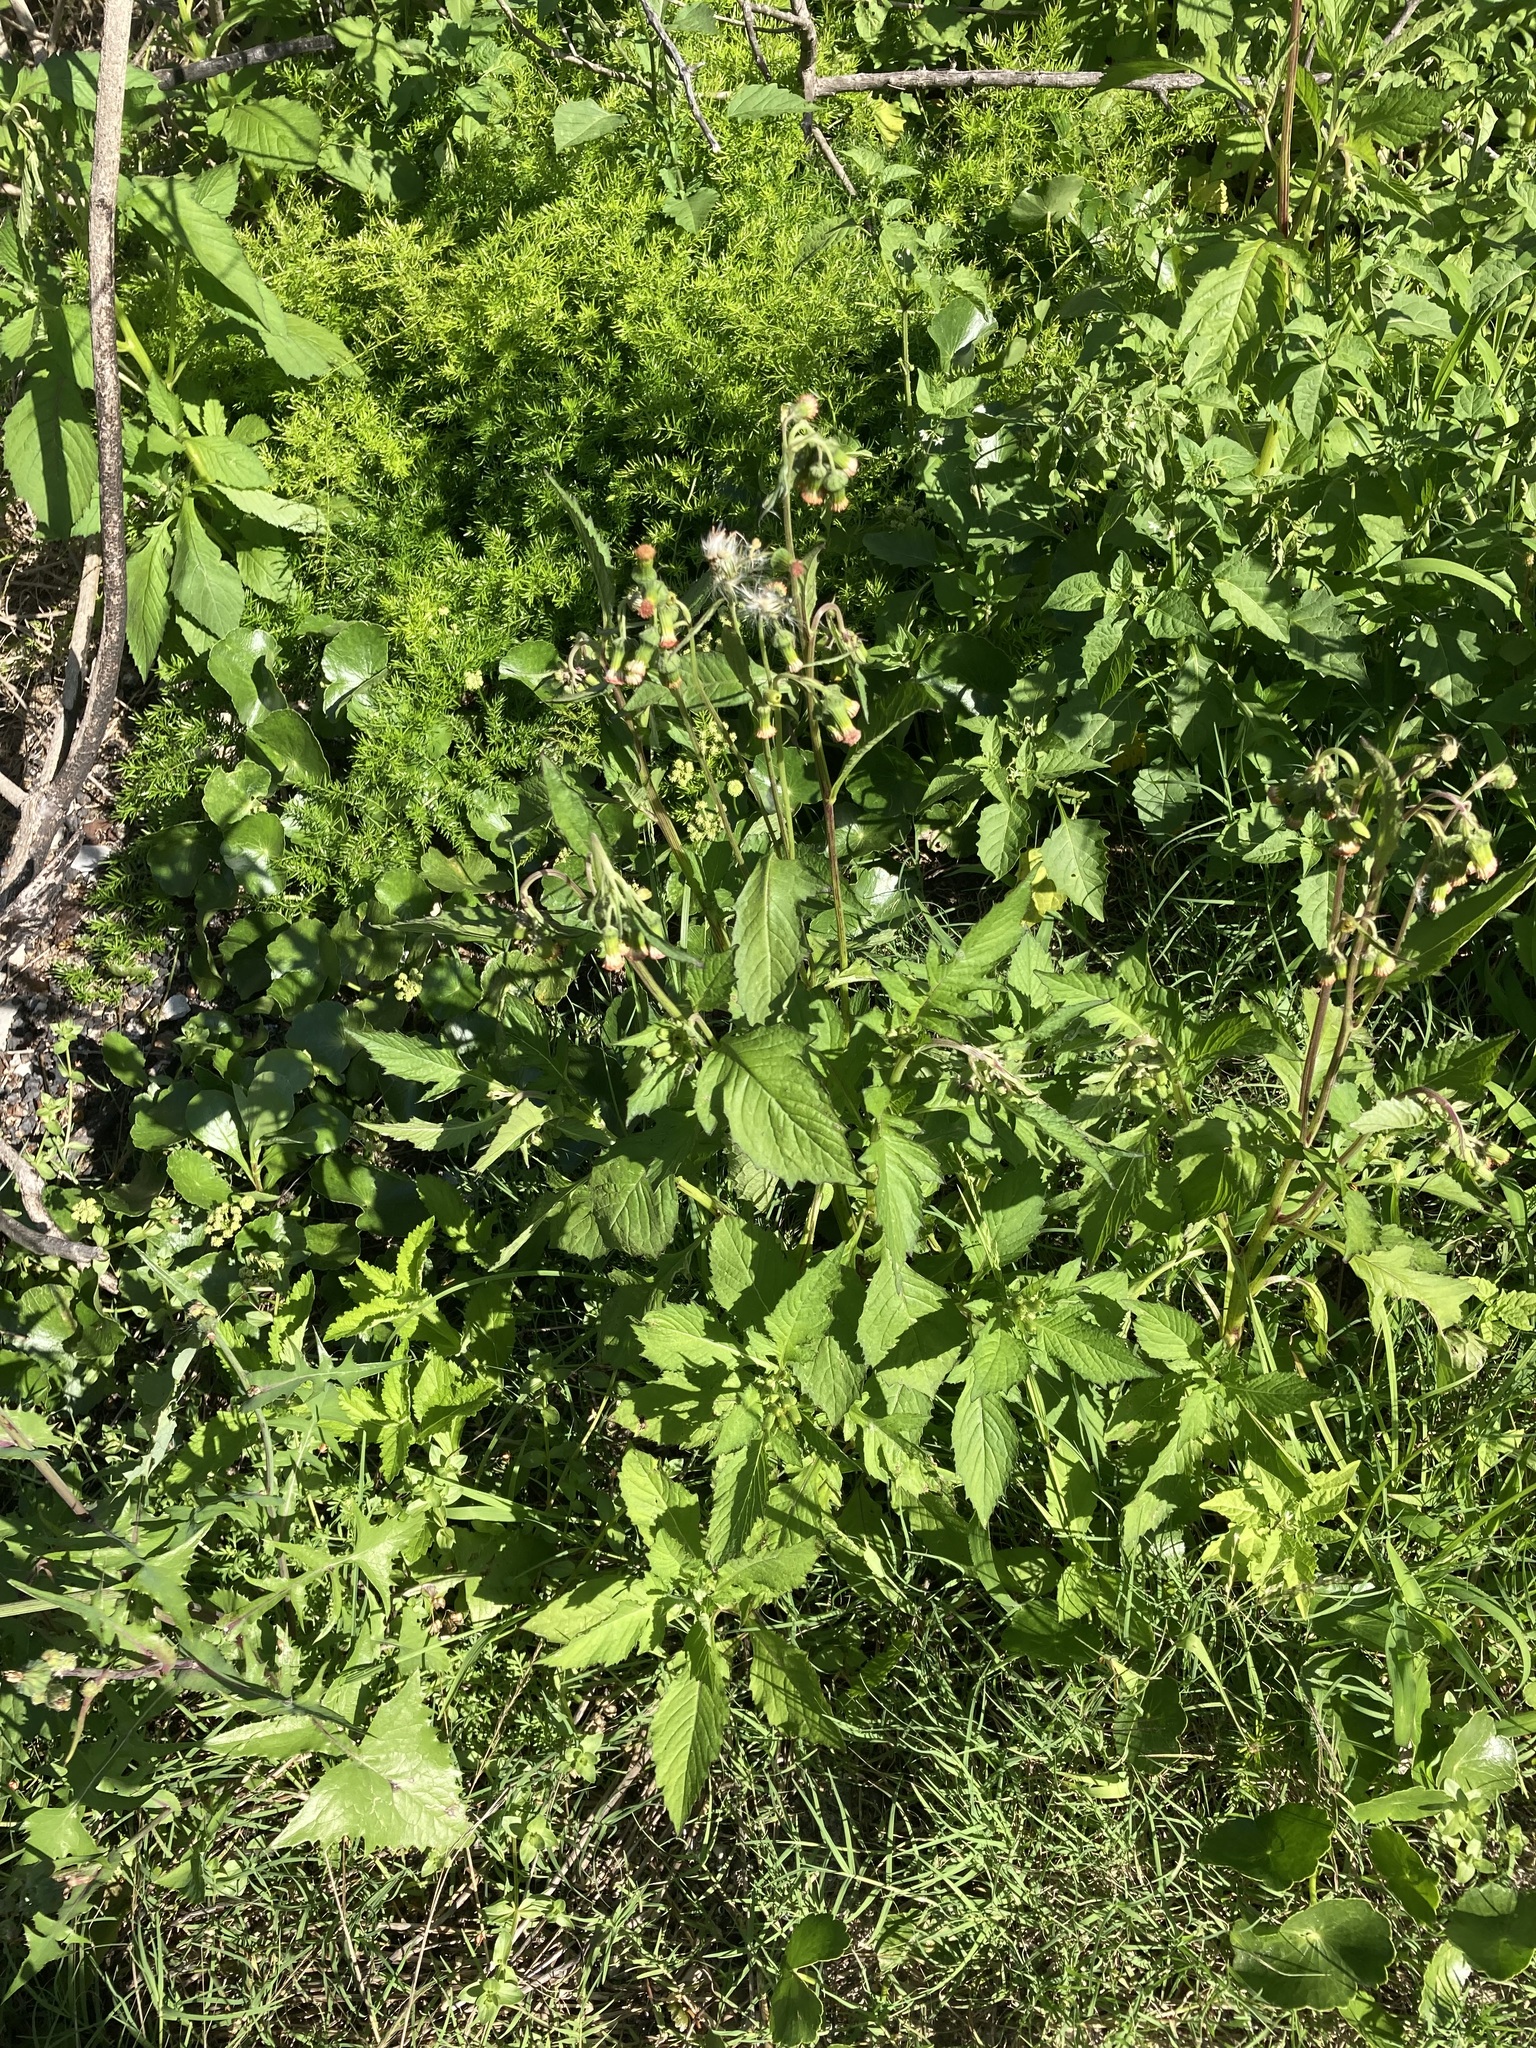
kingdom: Plantae
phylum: Tracheophyta
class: Magnoliopsida
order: Asterales
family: Asteraceae
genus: Crassocephalum
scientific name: Crassocephalum crepidioides
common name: Redflower ragleaf
